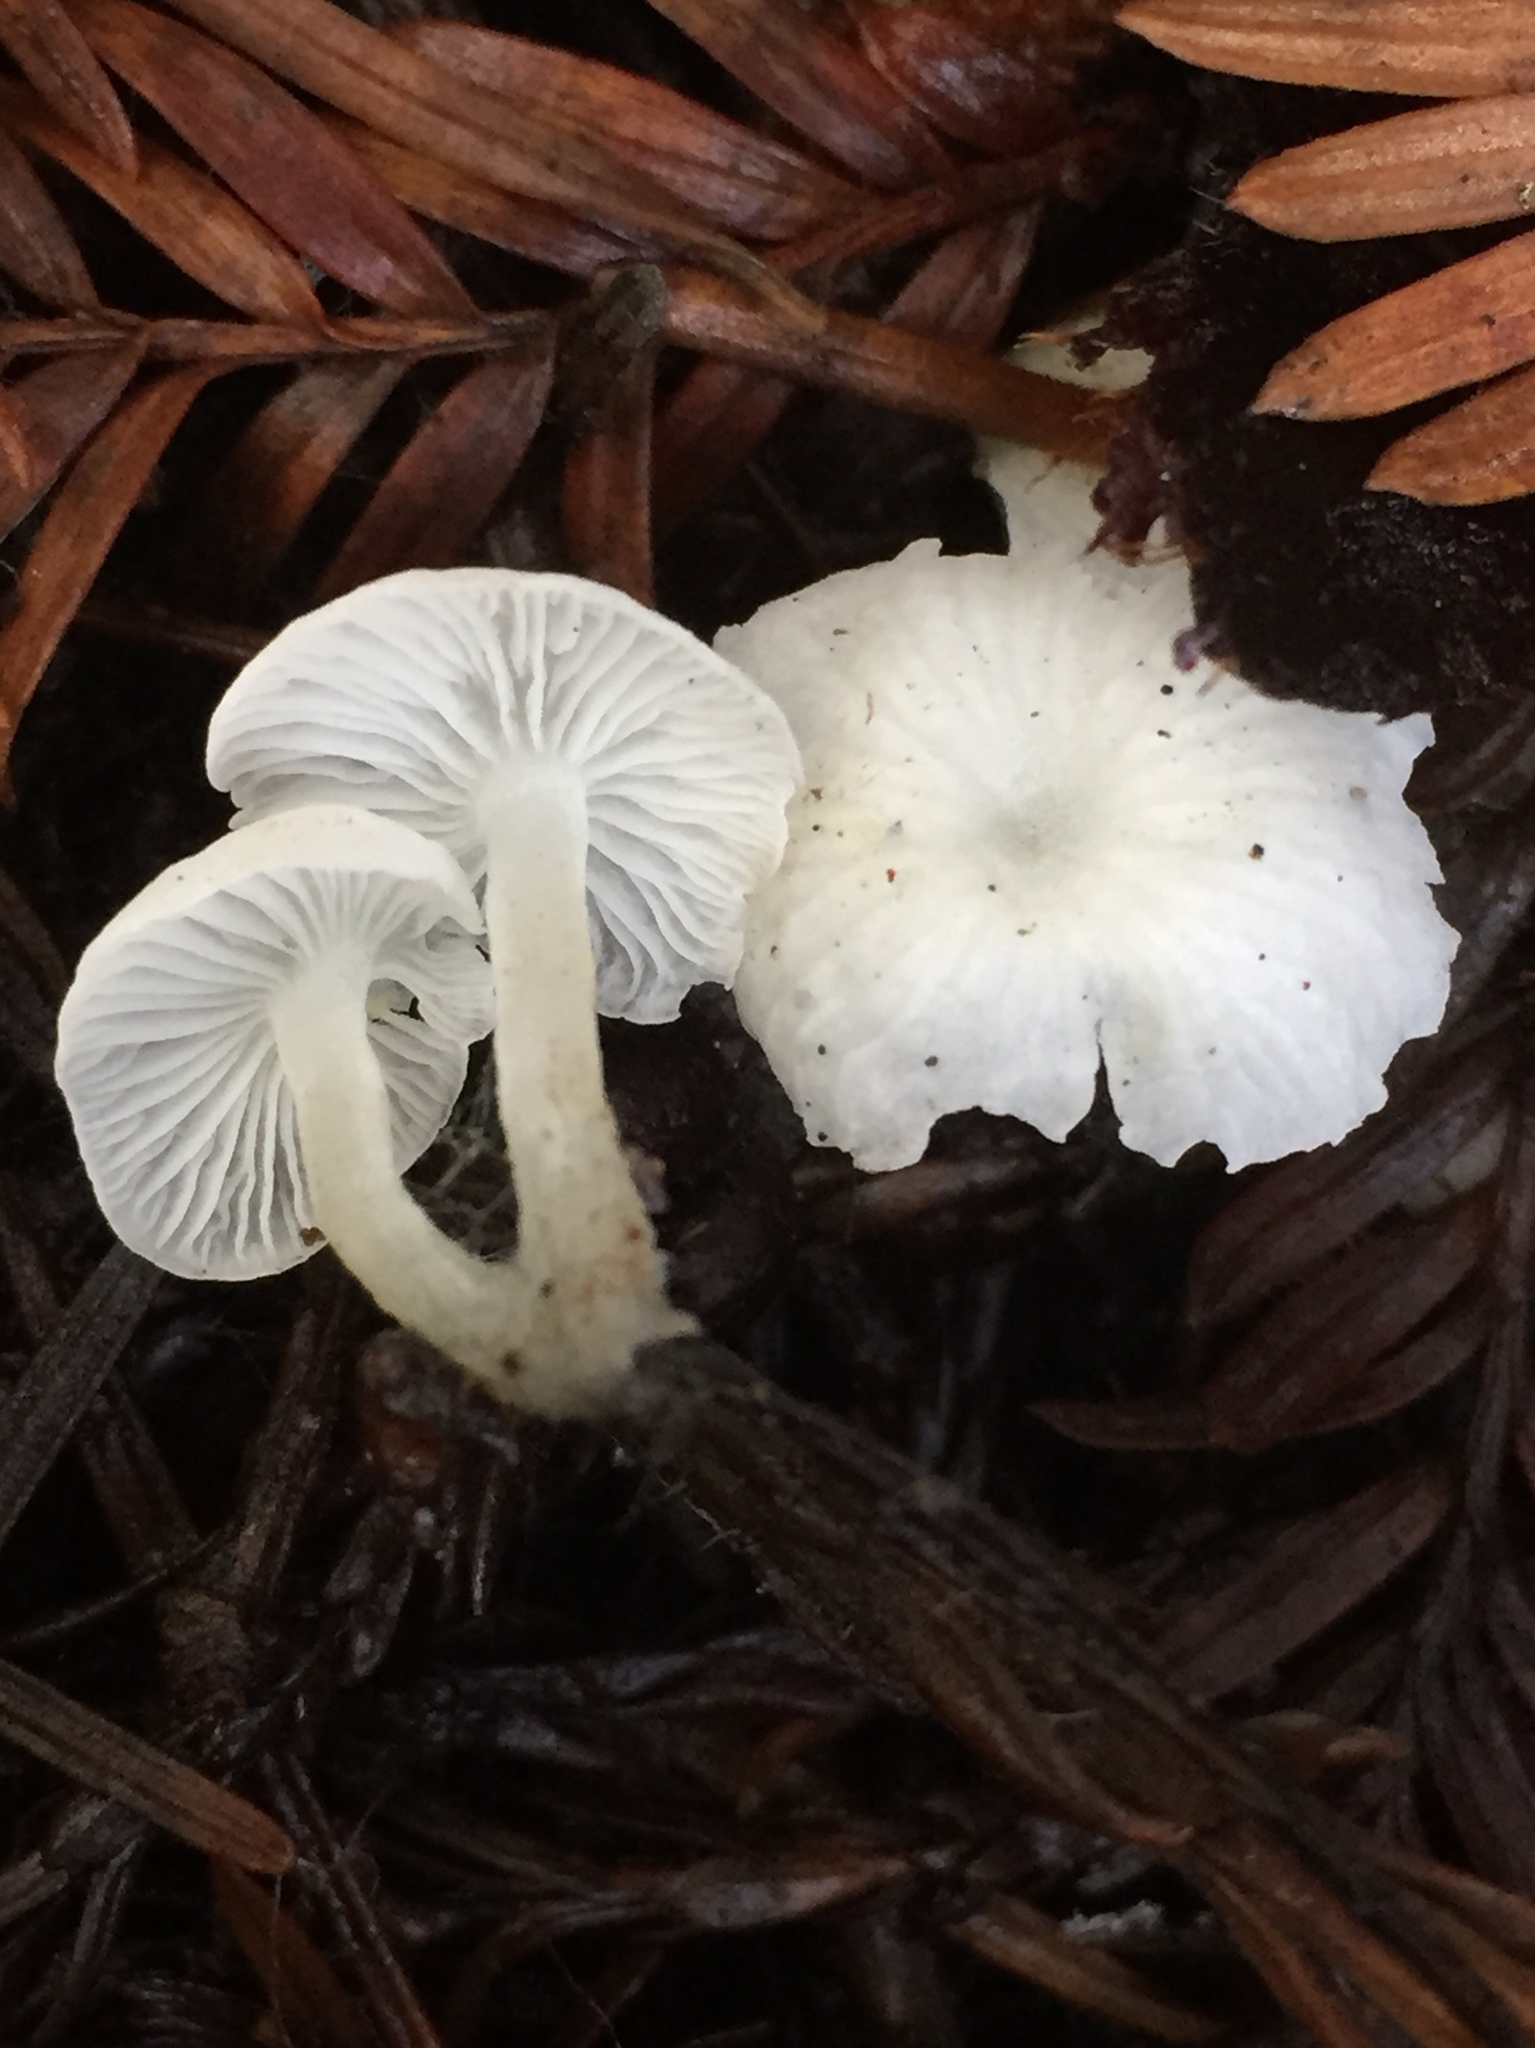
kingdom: Fungi
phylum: Basidiomycota
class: Agaricomycetes
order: Agaricales
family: Marasmiaceae
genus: Marasmius
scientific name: Marasmius calhouniae
